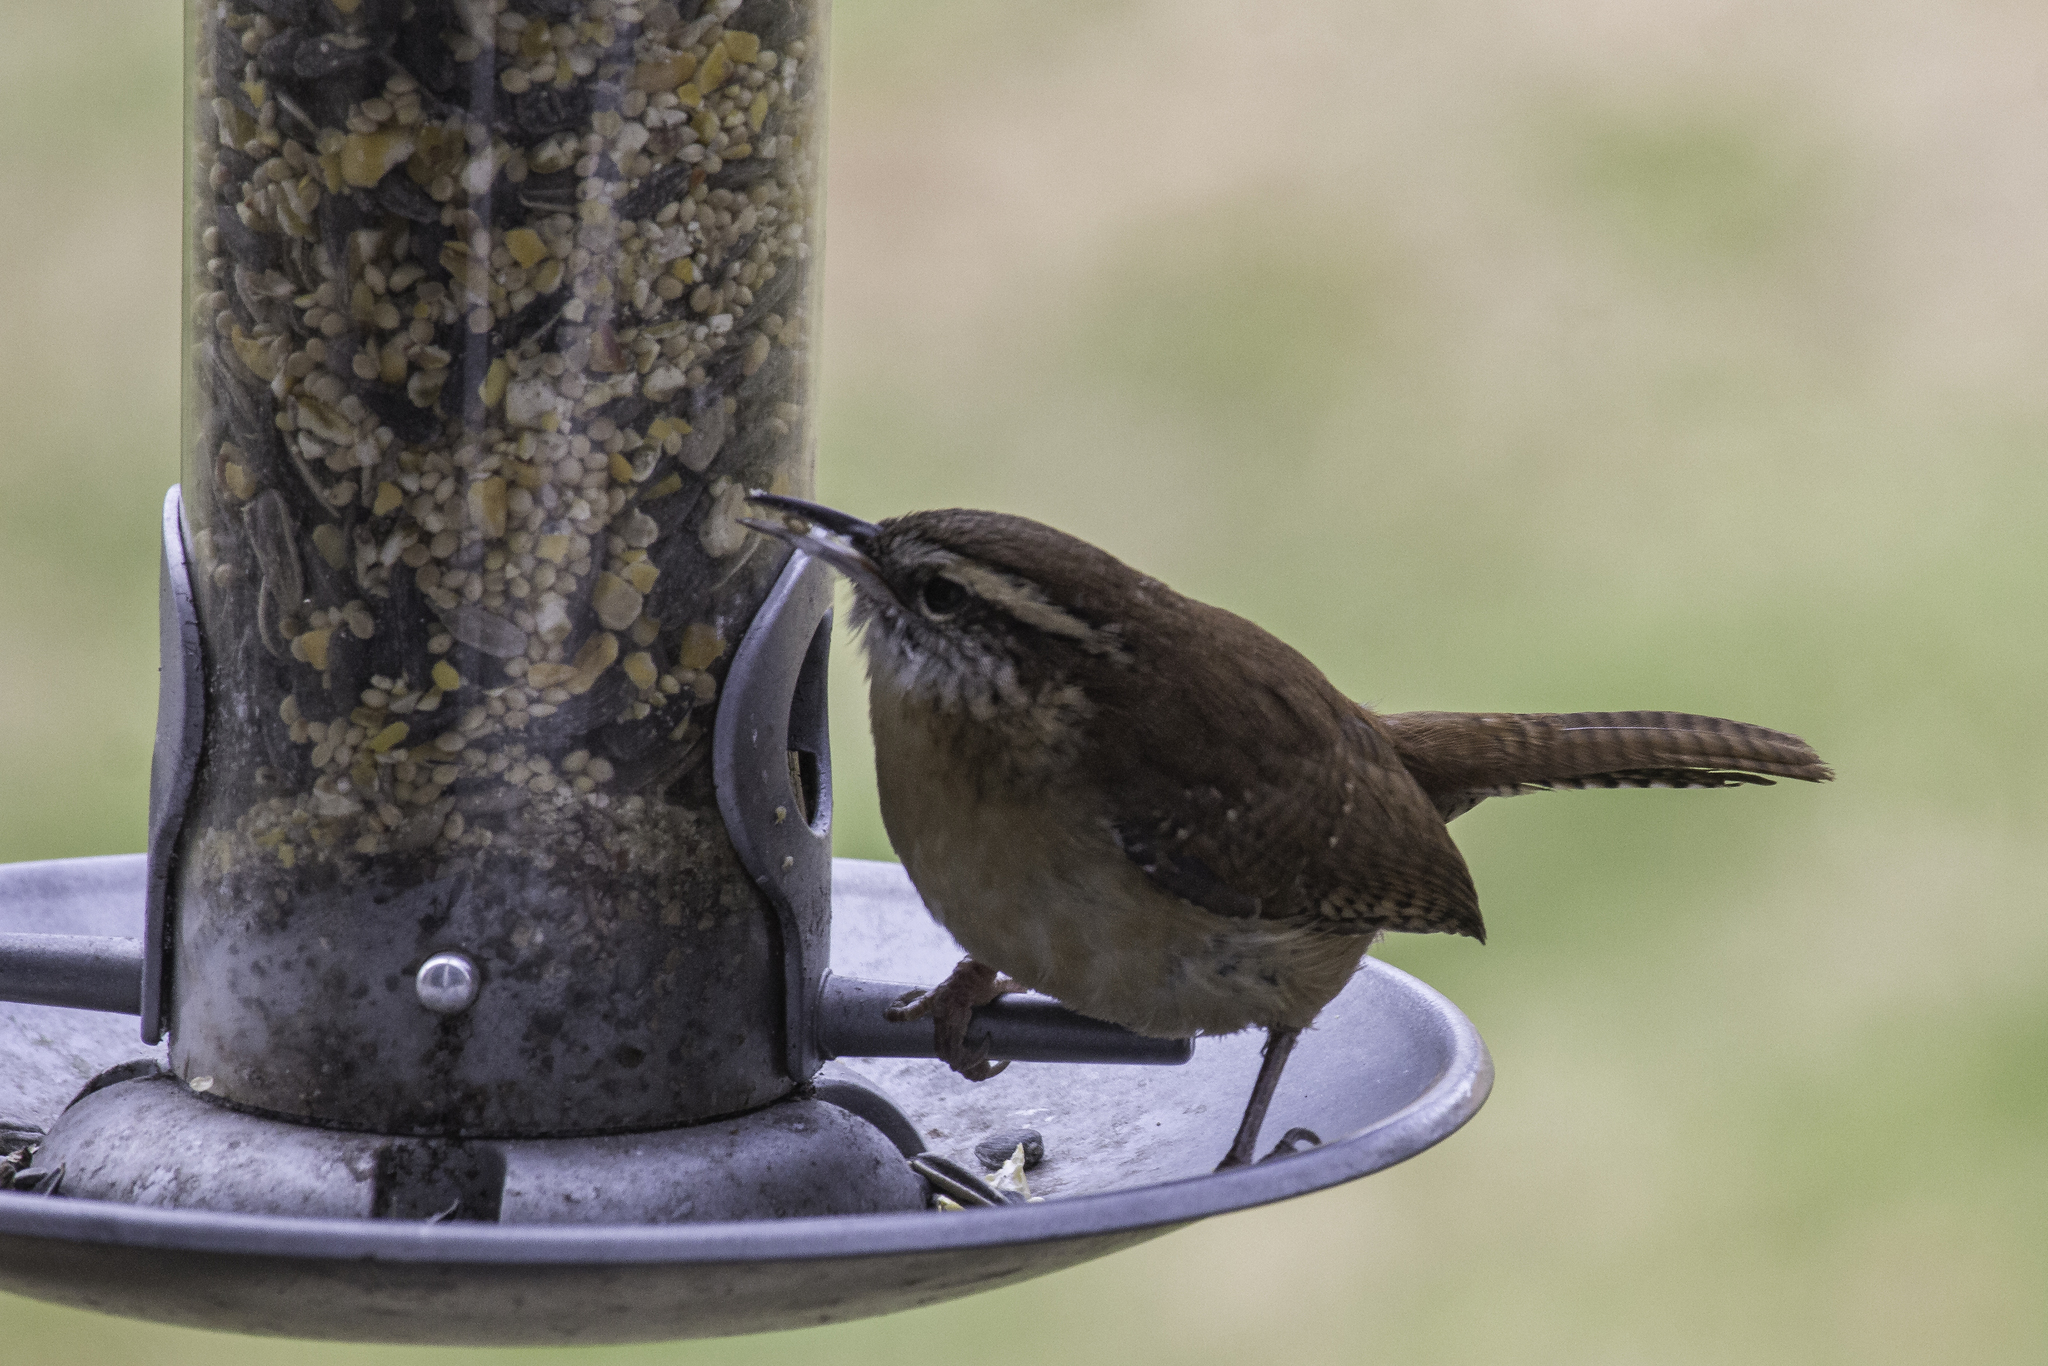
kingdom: Animalia
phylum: Chordata
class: Aves
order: Passeriformes
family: Troglodytidae
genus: Thryothorus
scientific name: Thryothorus ludovicianus
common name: Carolina wren
